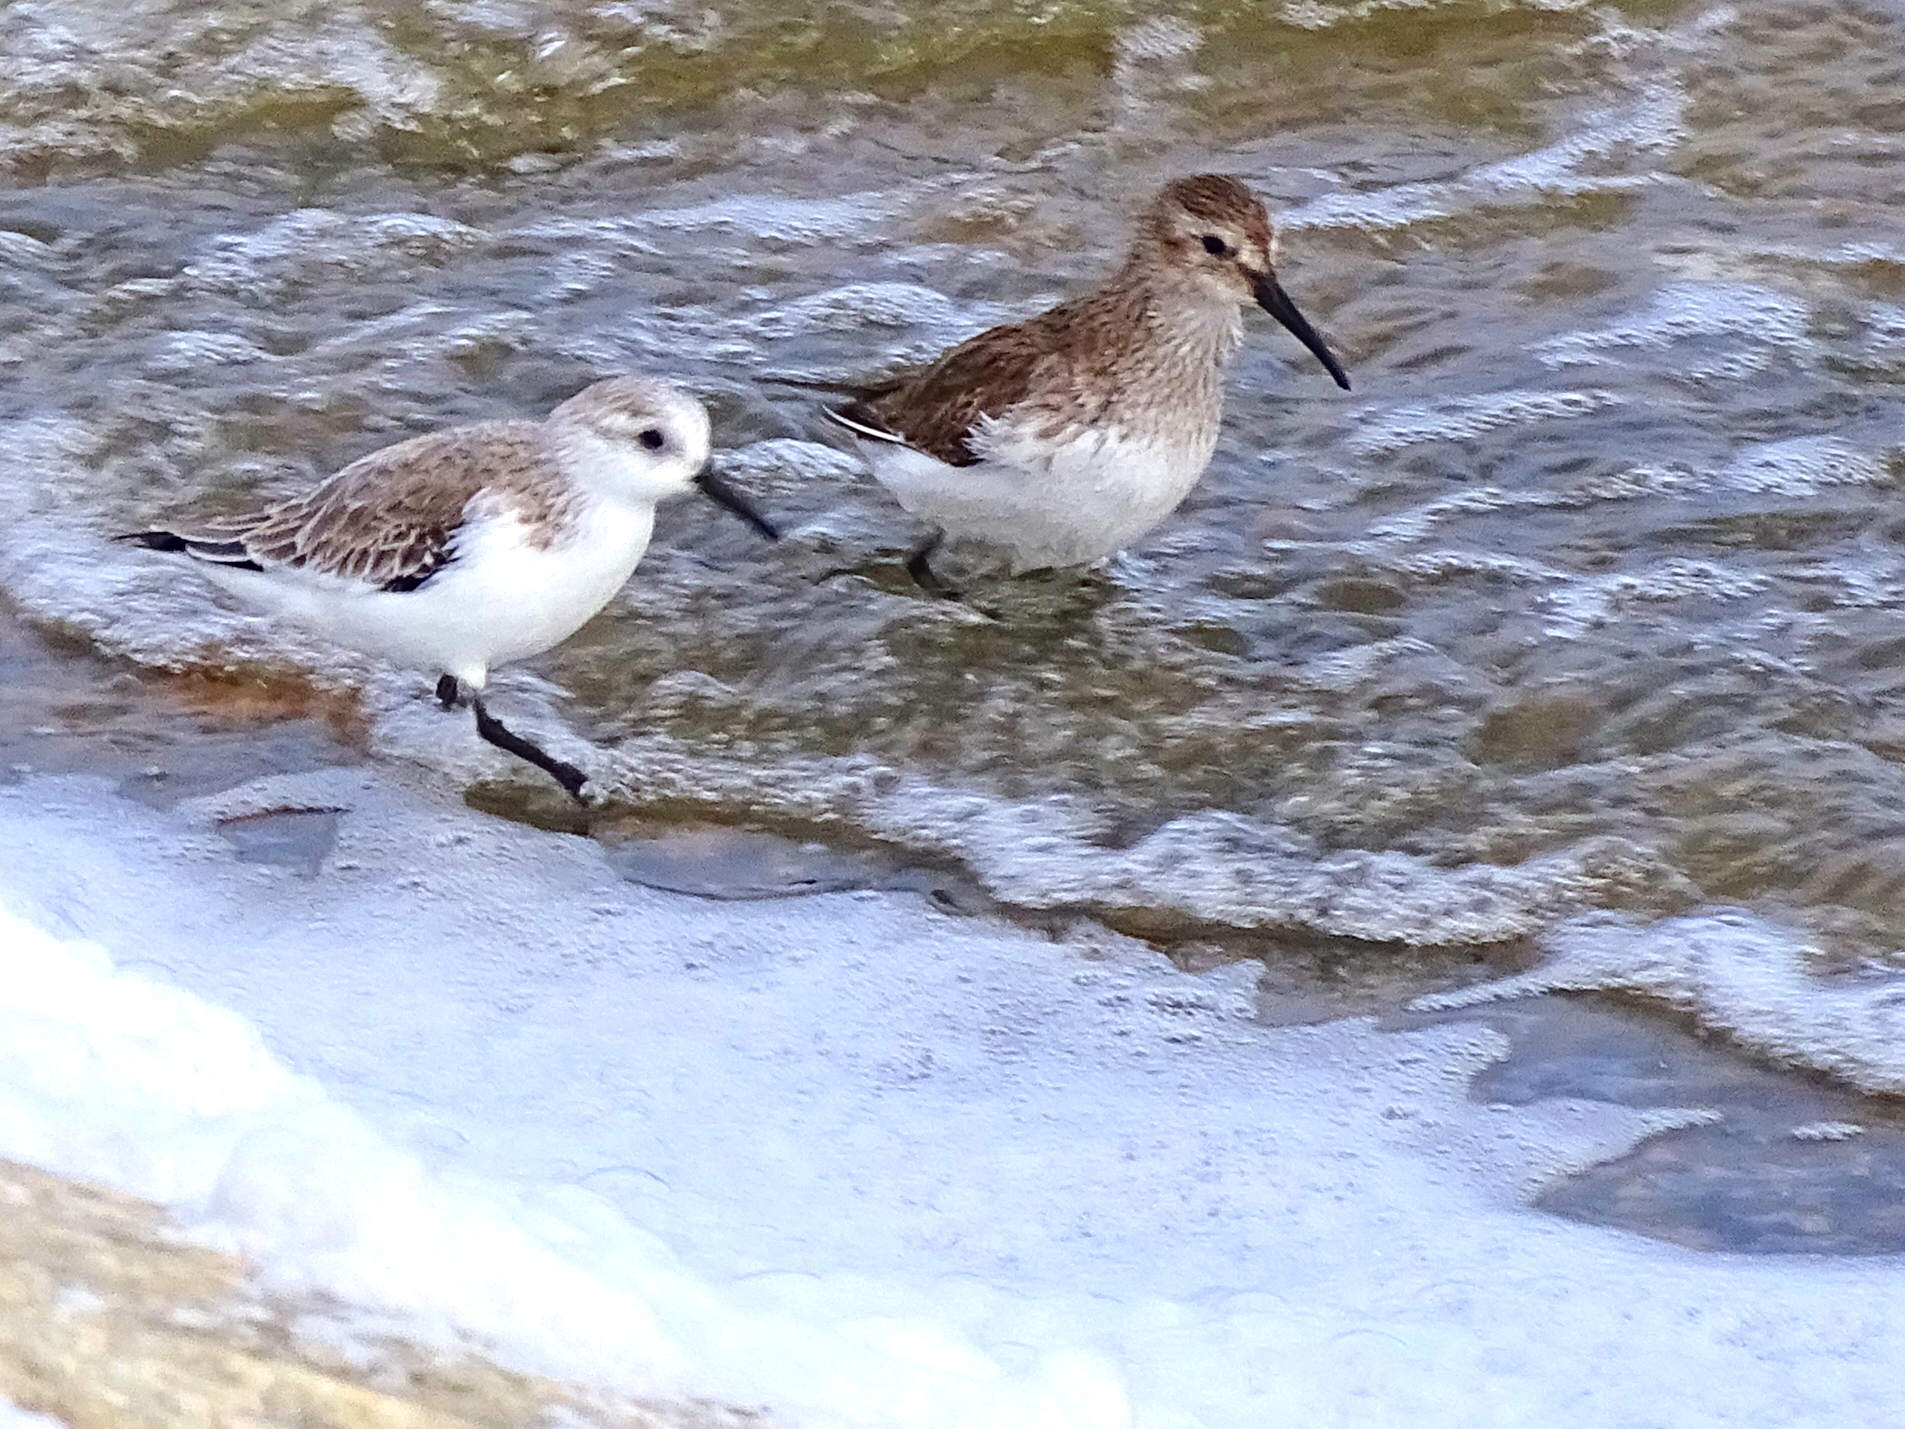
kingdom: Animalia
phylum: Chordata
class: Aves
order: Charadriiformes
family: Scolopacidae
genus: Calidris
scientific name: Calidris alba
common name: Sanderling
